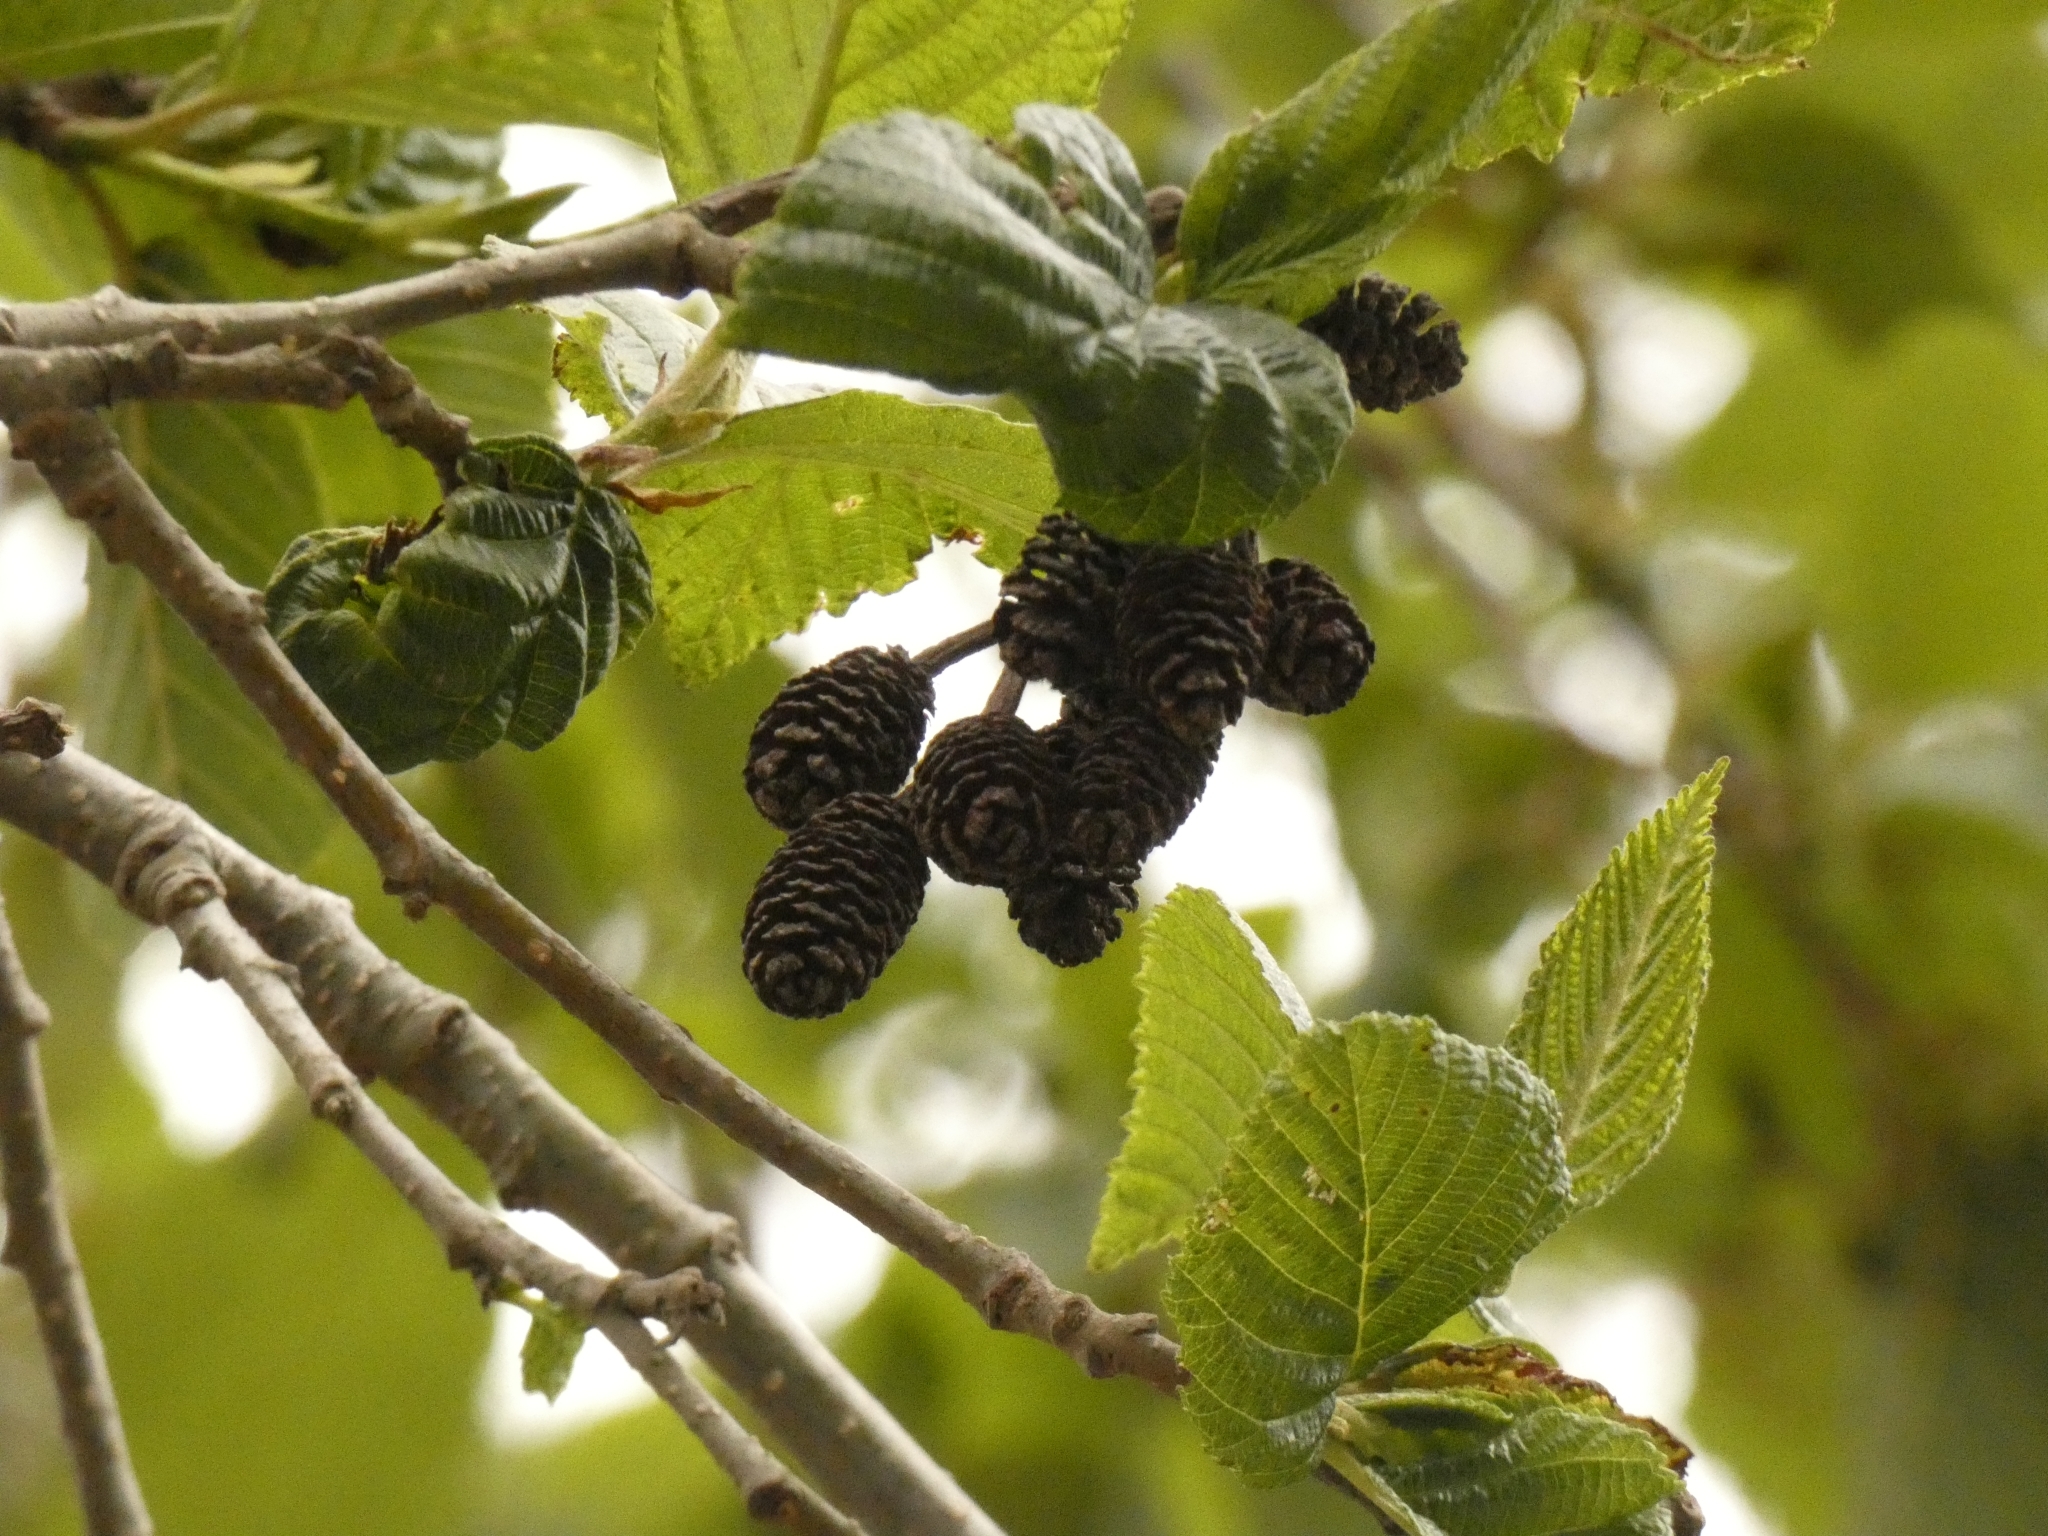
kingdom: Plantae
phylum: Tracheophyta
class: Magnoliopsida
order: Fagales
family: Betulaceae
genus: Alnus
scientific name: Alnus acuminata
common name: Alder
